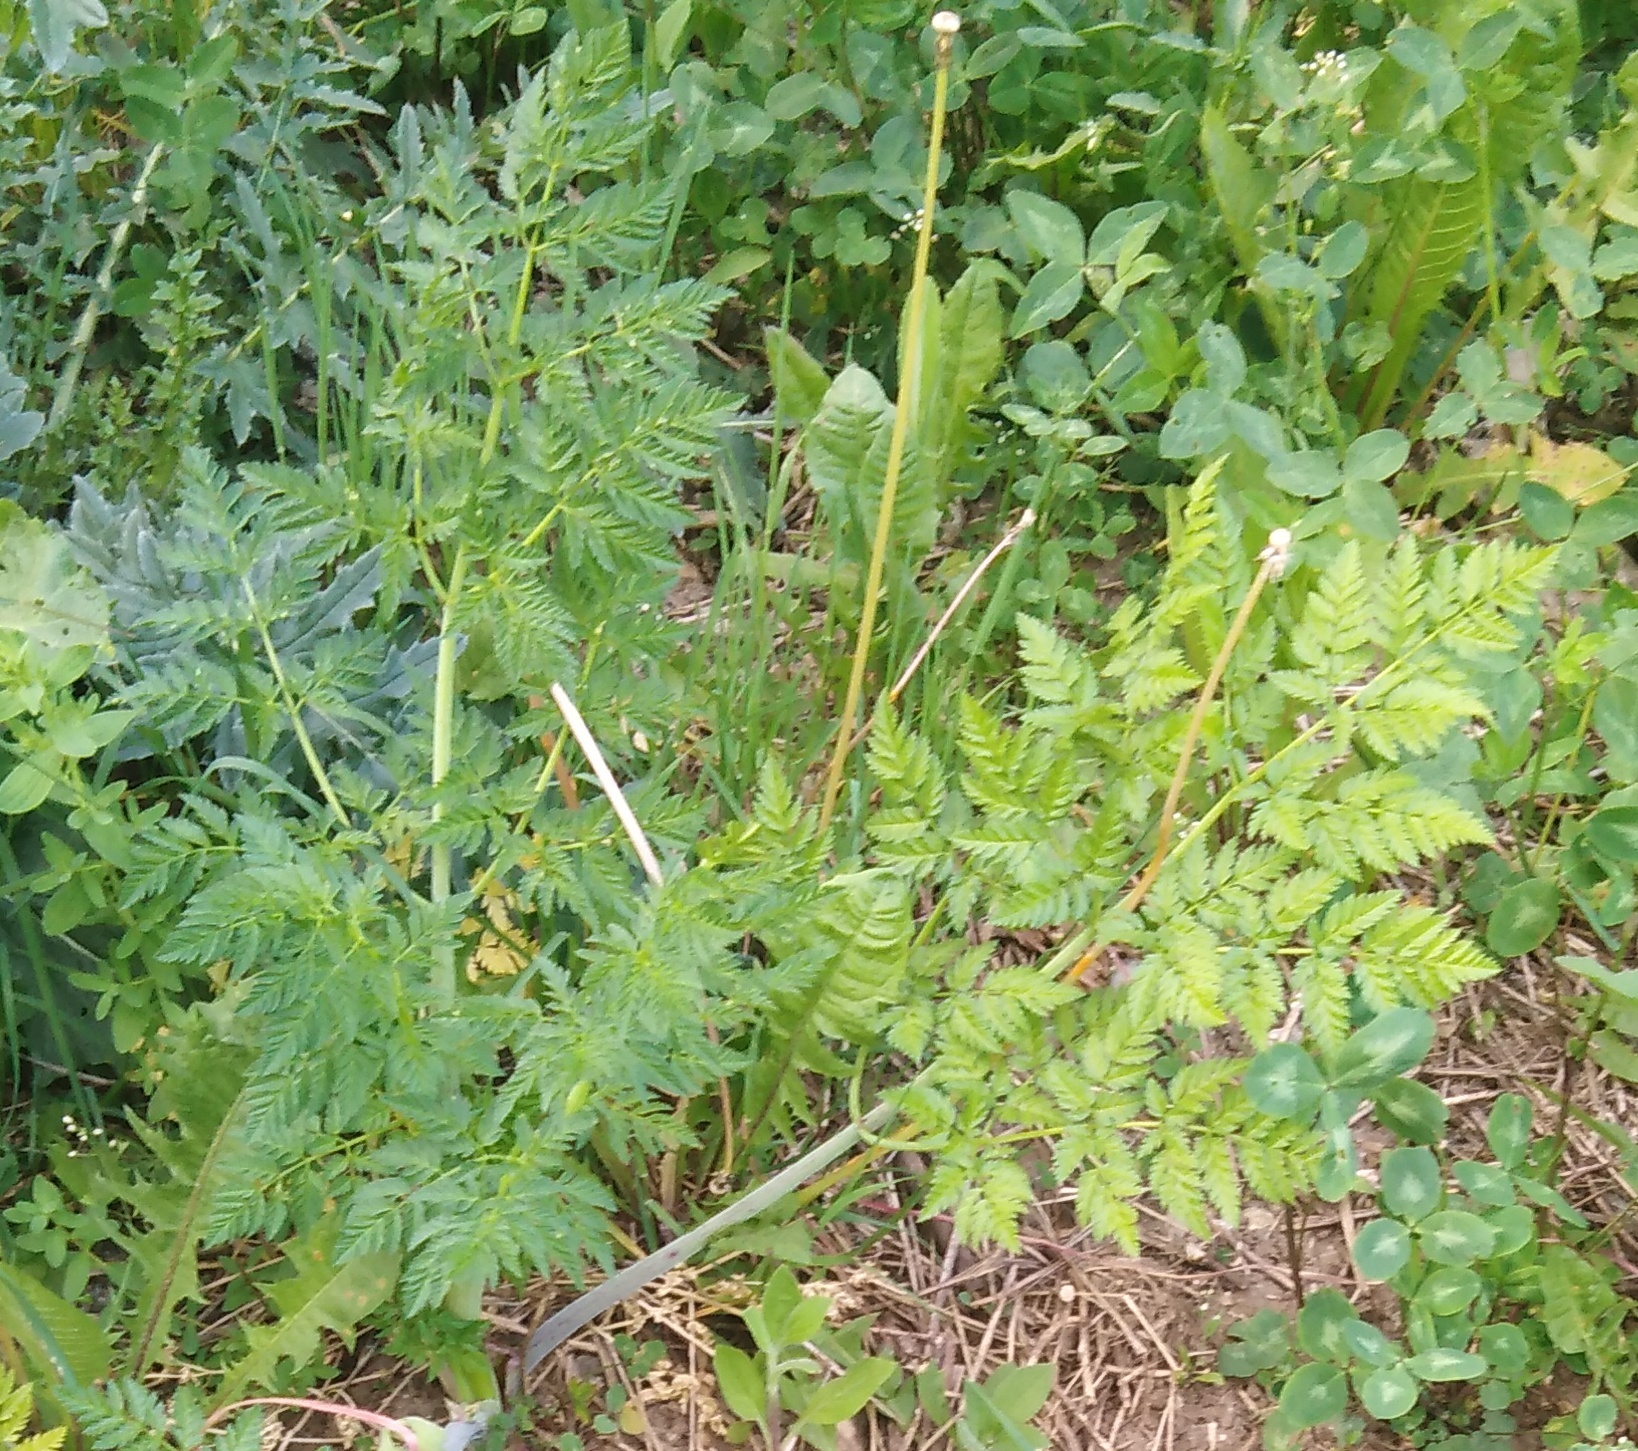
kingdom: Plantae
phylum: Tracheophyta
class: Magnoliopsida
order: Apiales
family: Apiaceae
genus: Anthriscus
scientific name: Anthriscus sylvestris
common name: Cow parsley
